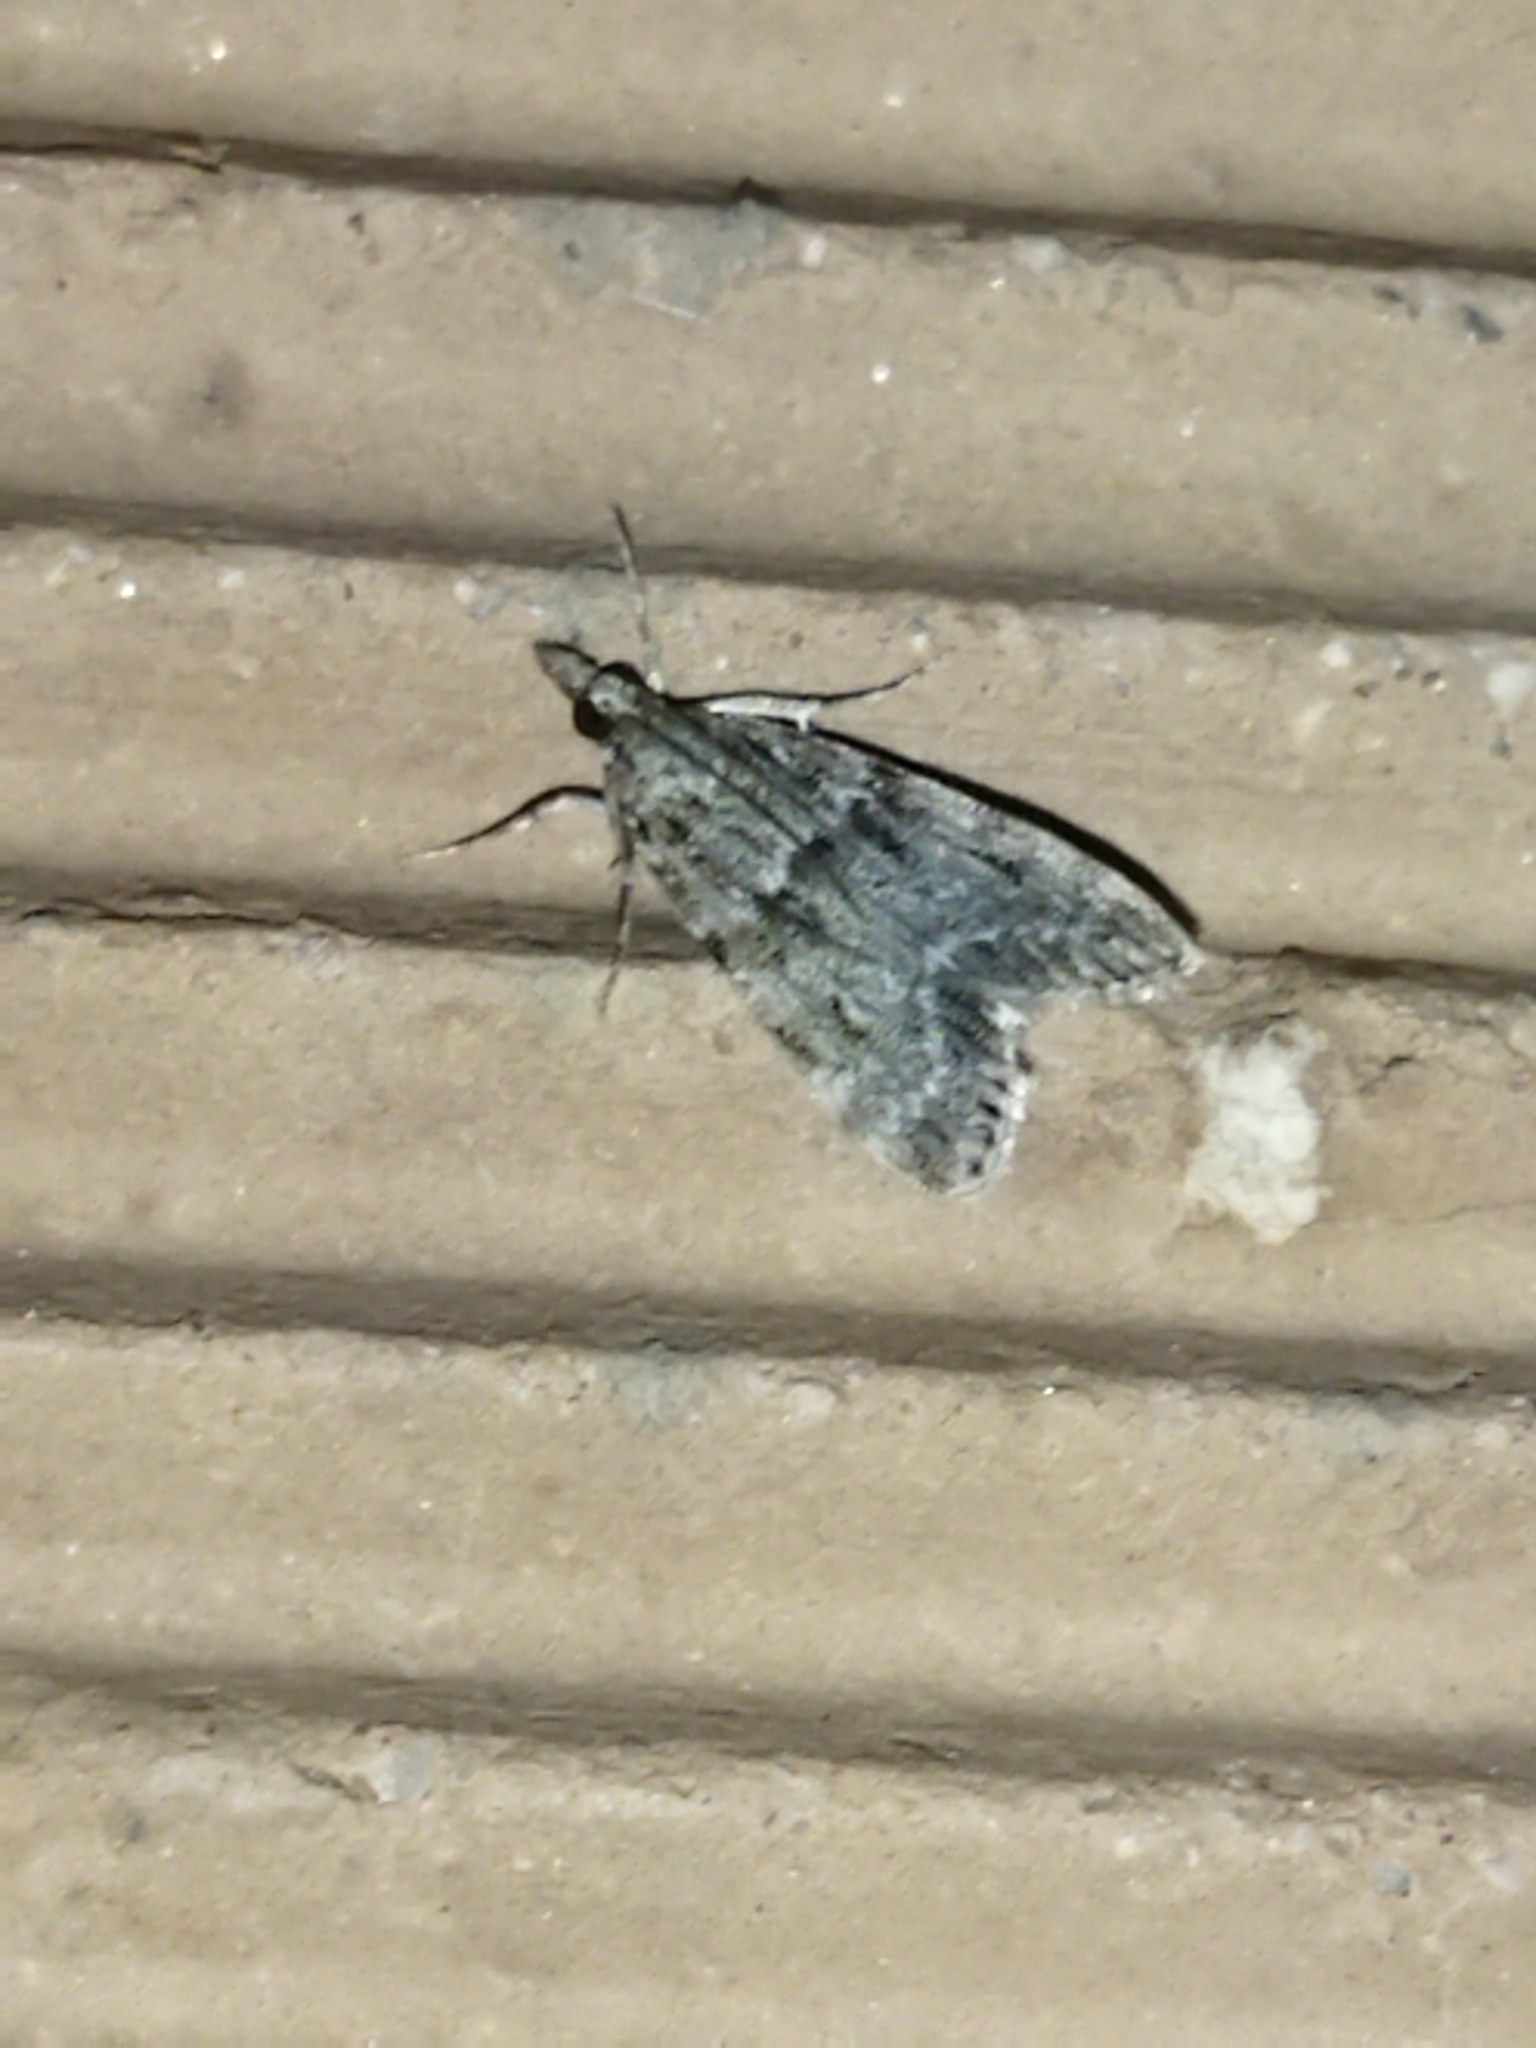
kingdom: Animalia
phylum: Arthropoda
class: Insecta
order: Lepidoptera
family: Crambidae
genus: Eudonia
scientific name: Eudonia lacustrata
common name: Little grey
